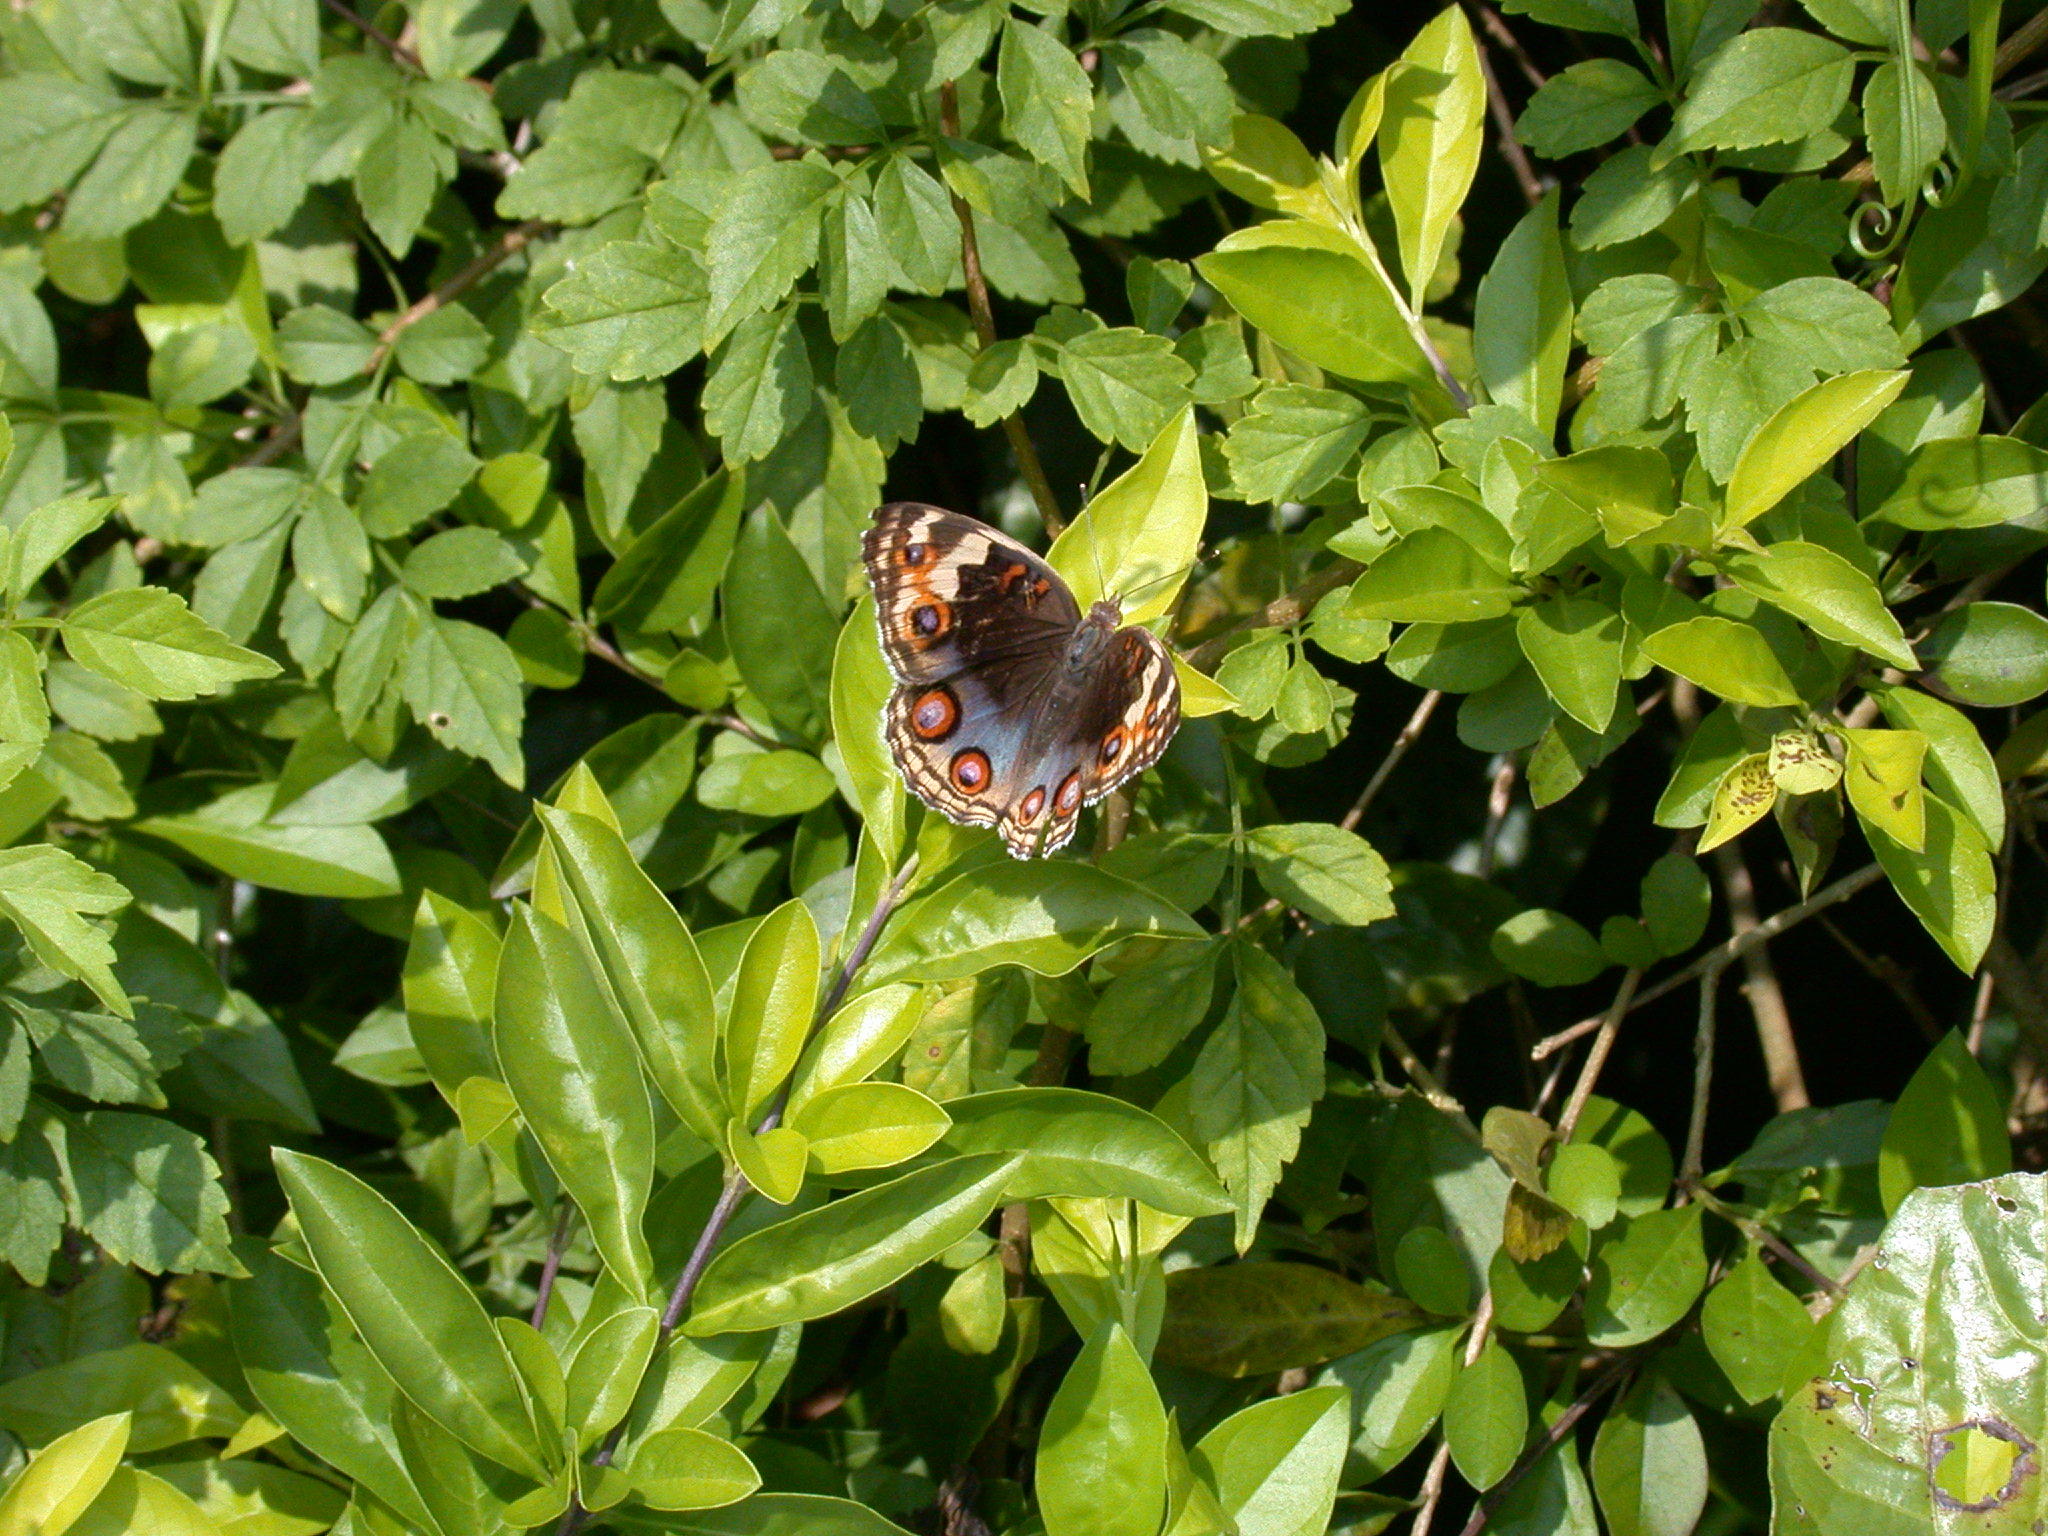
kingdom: Animalia
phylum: Arthropoda
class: Insecta
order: Lepidoptera
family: Nymphalidae
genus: Junonia
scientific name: Junonia orithya
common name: Blue pansy
